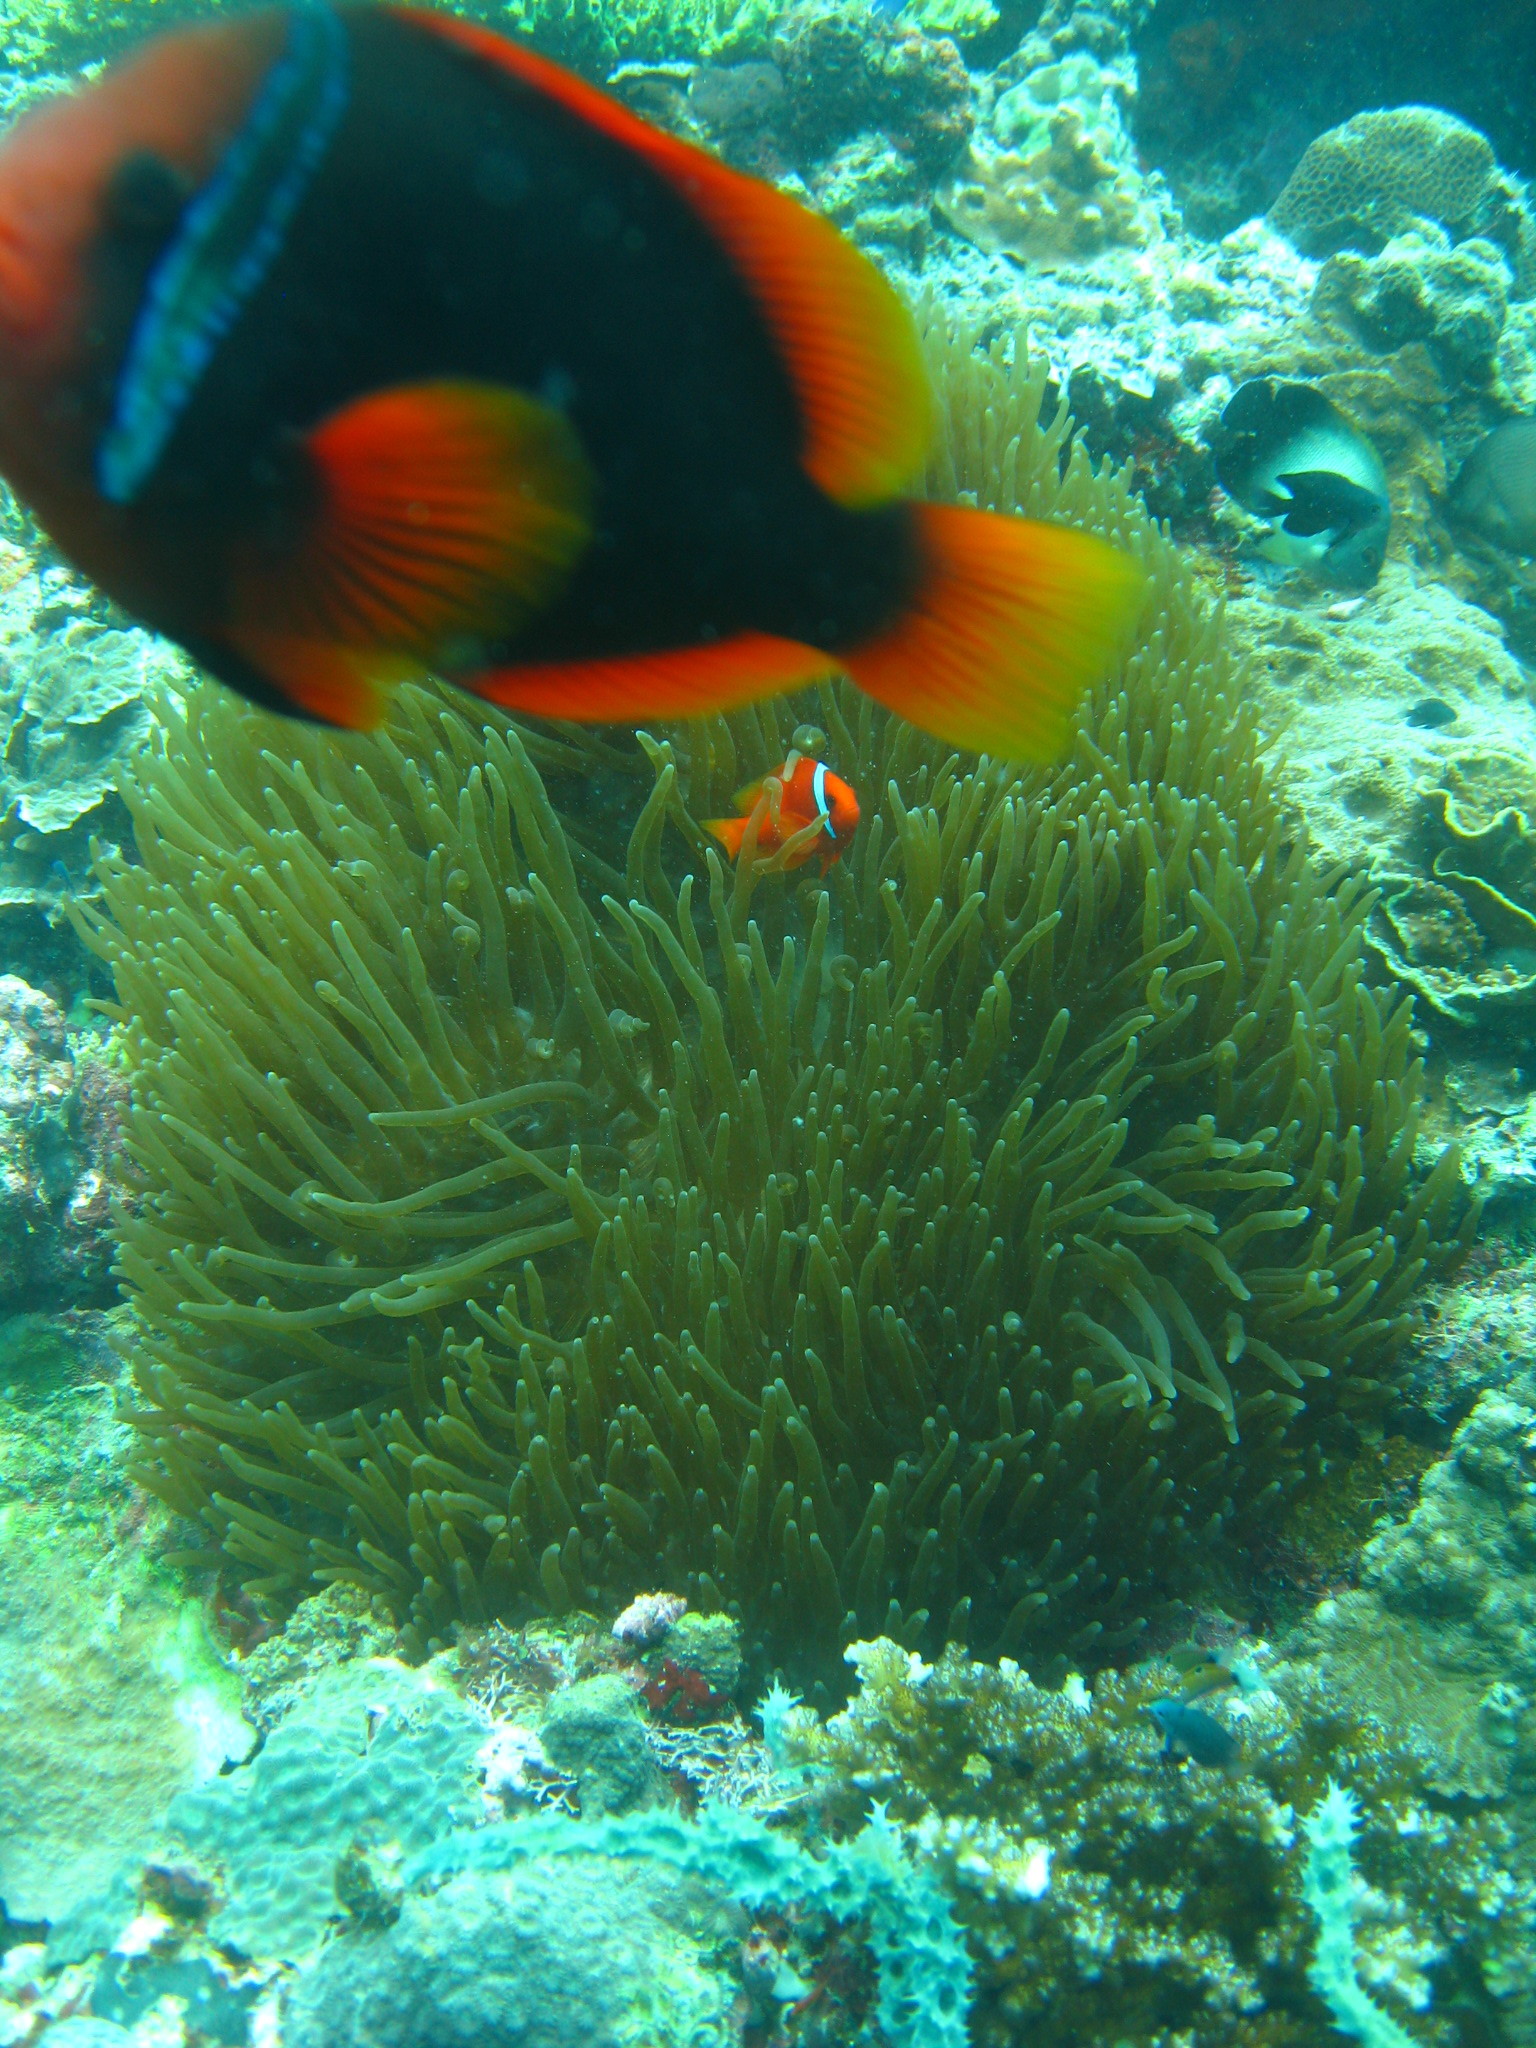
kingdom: Animalia
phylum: Chordata
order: Perciformes
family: Pomacentridae
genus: Amphiprion
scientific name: Amphiprion frenatus
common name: Tomato anemonefish
